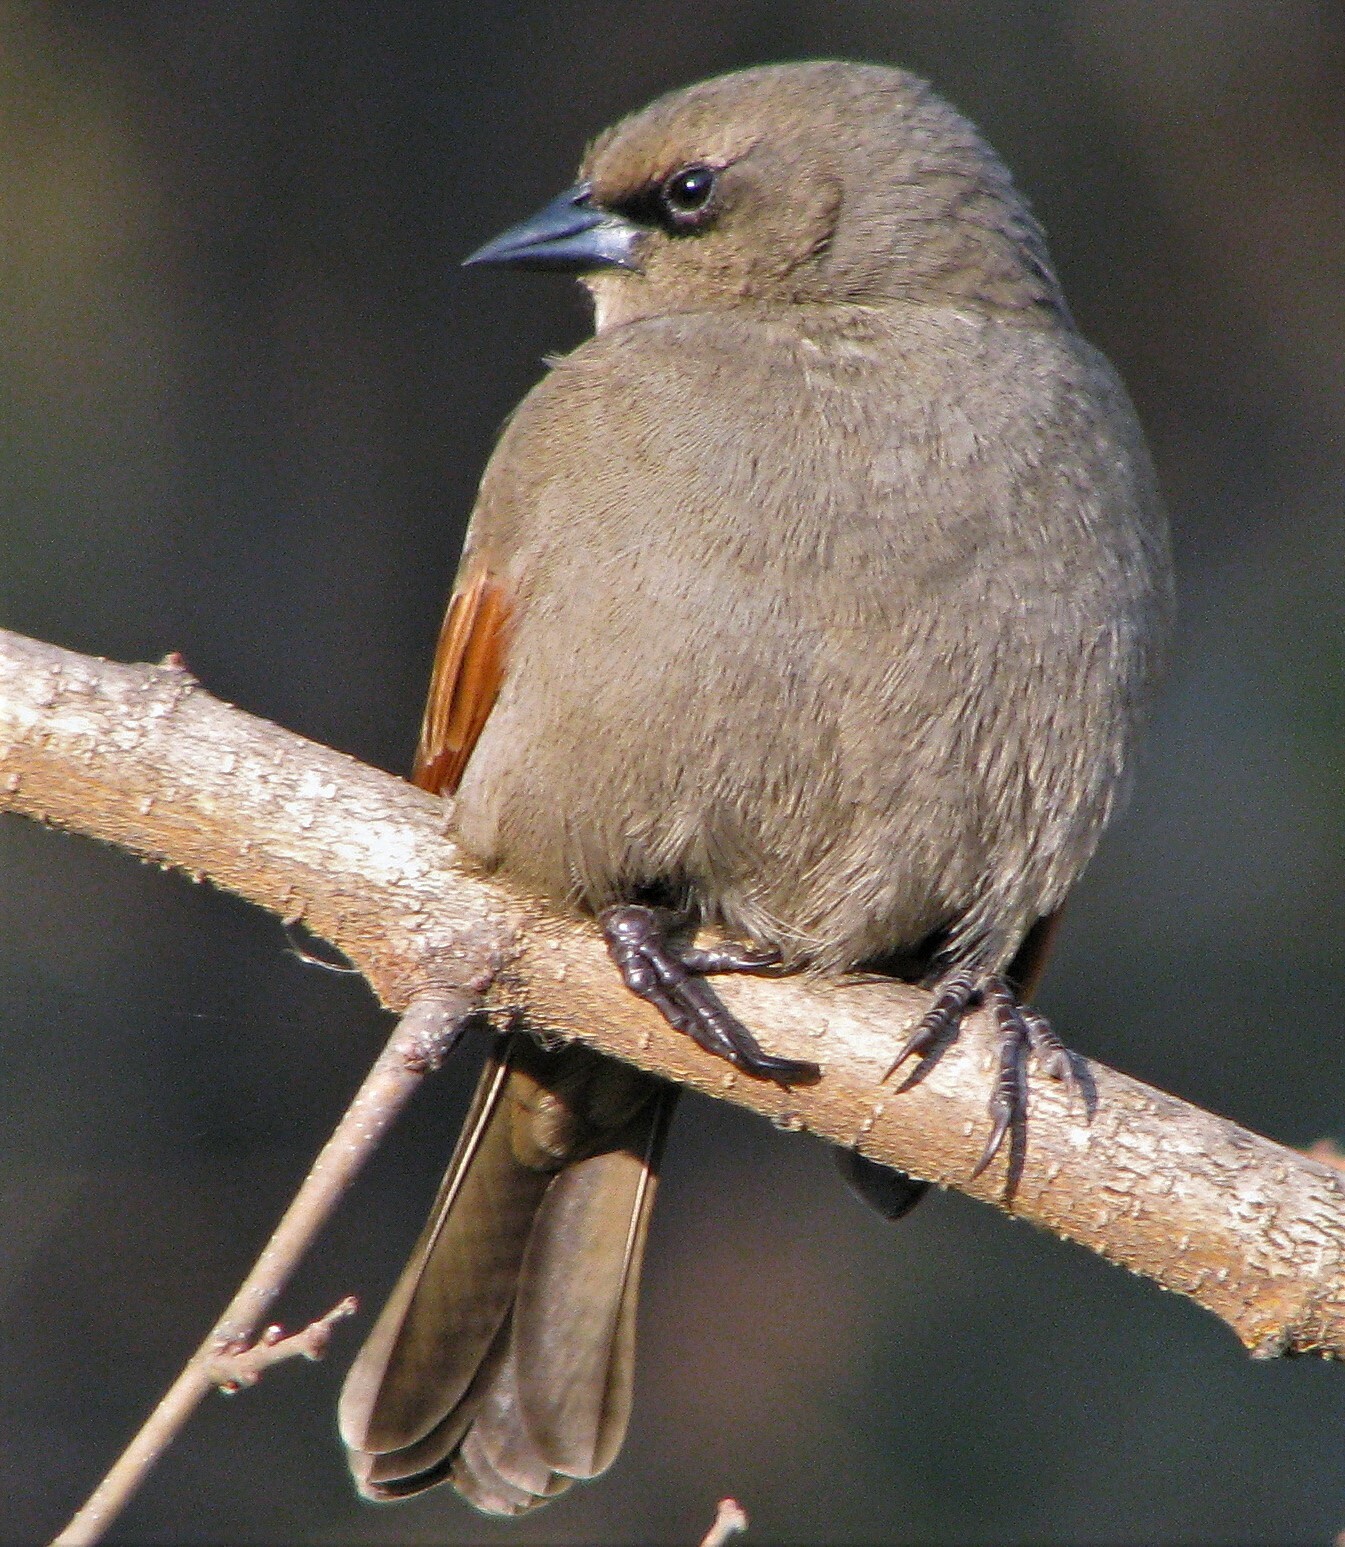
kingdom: Animalia
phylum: Chordata
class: Aves
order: Passeriformes
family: Icteridae
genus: Agelaioides
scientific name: Agelaioides badius
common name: Baywing
